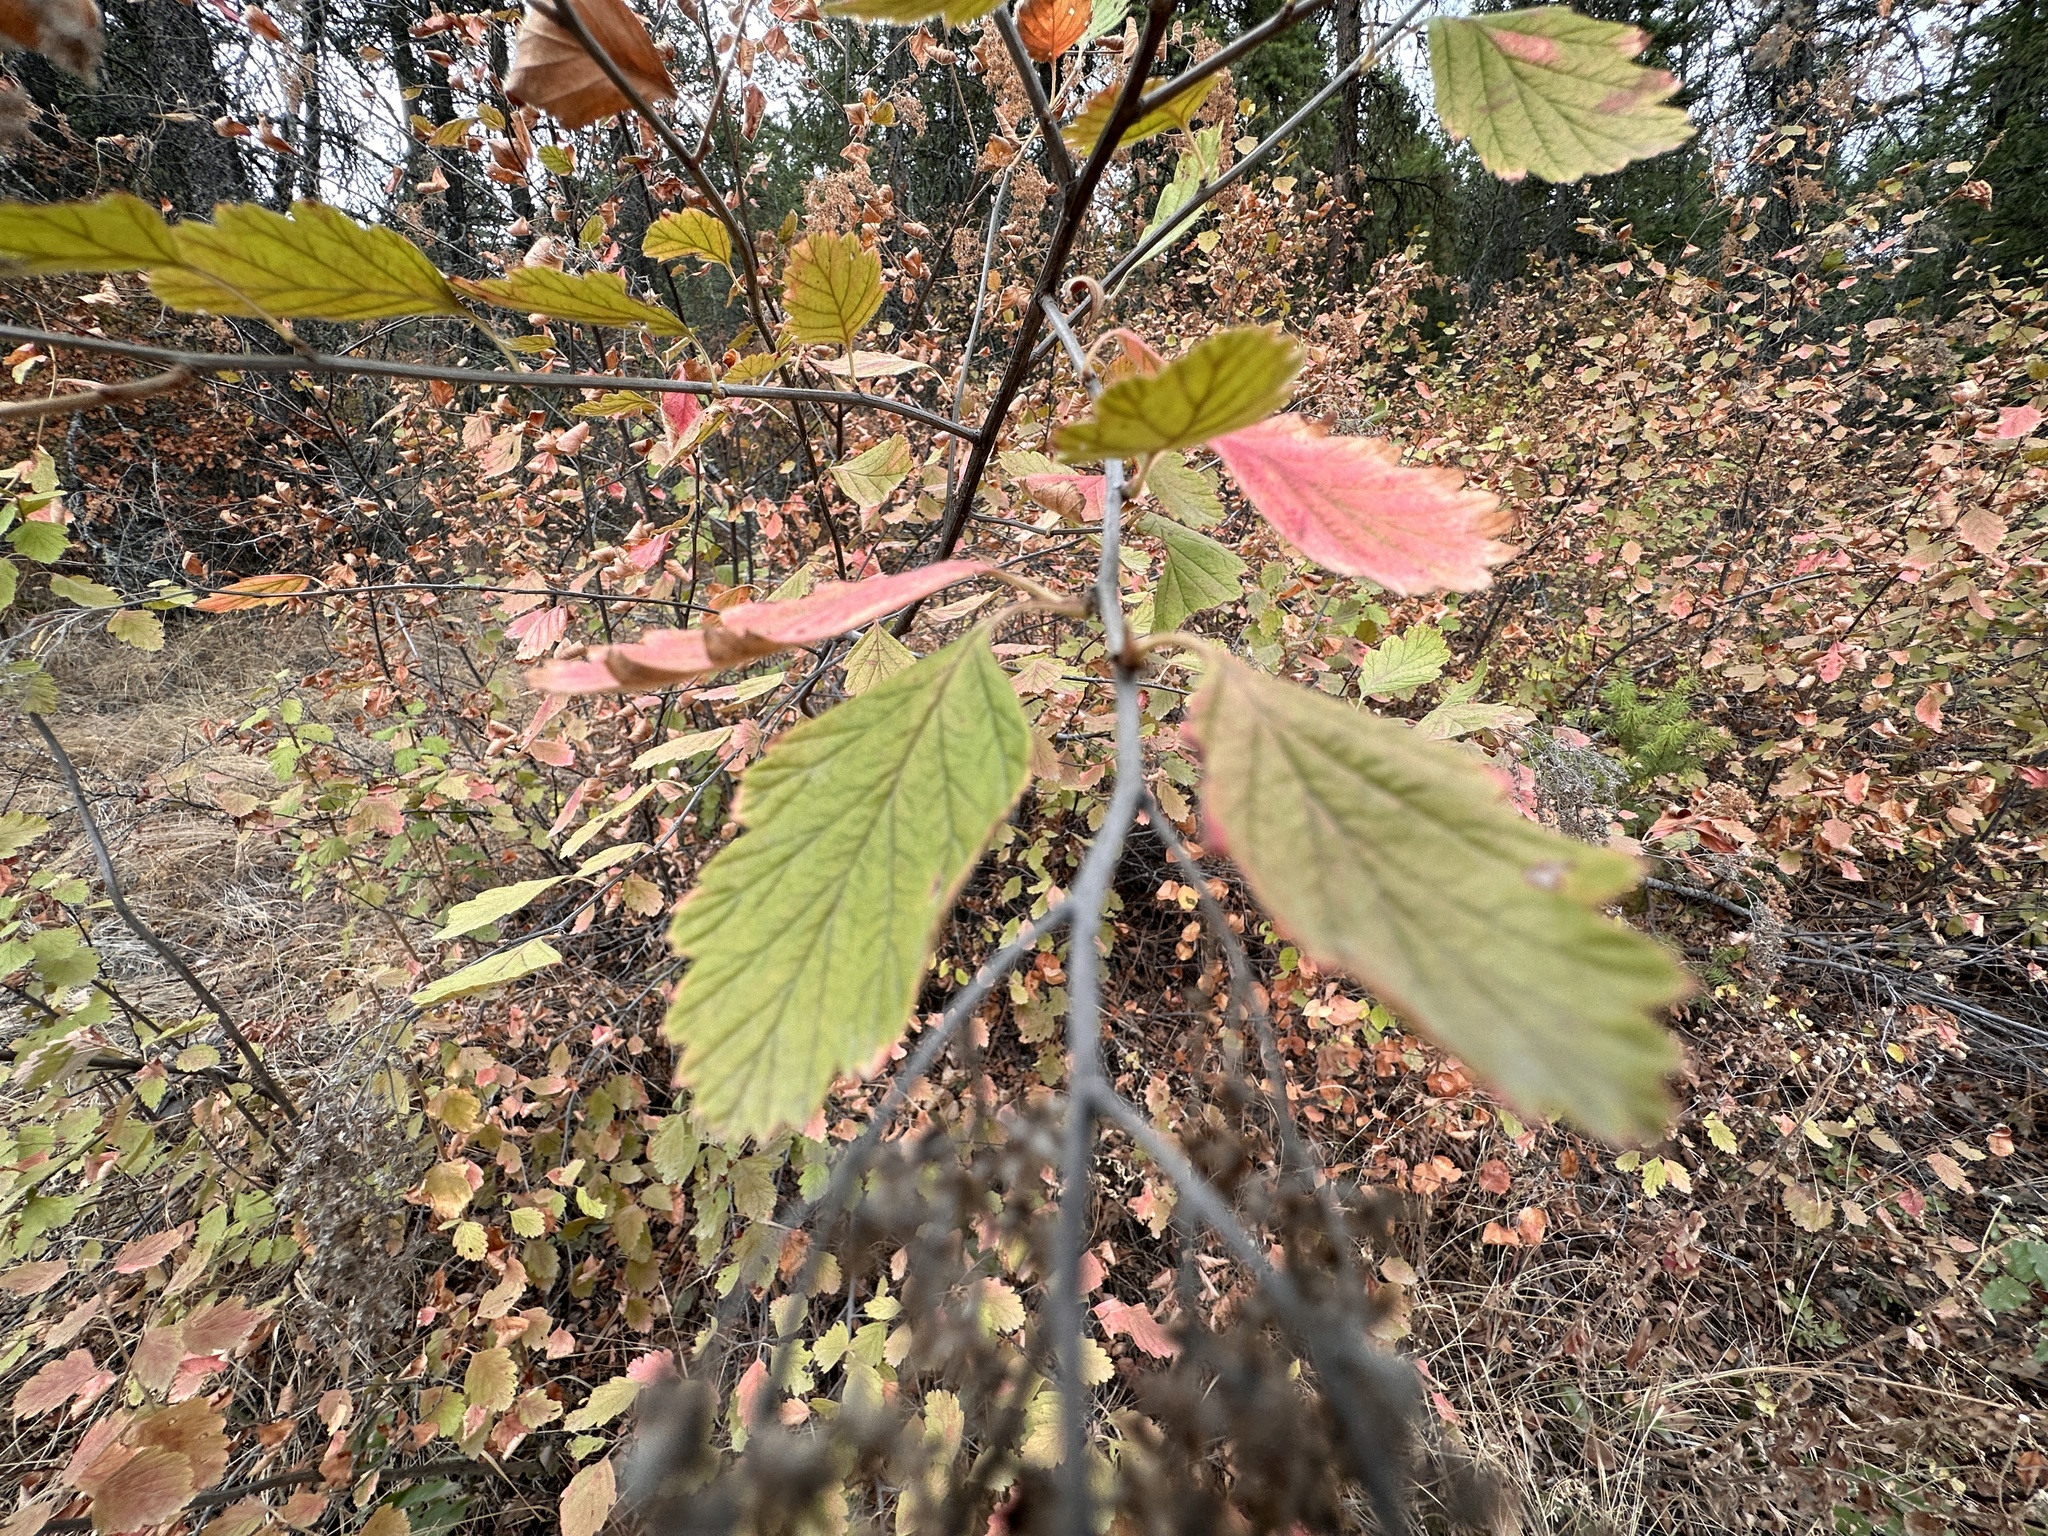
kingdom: Plantae
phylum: Tracheophyta
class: Magnoliopsida
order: Rosales
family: Rosaceae
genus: Holodiscus
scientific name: Holodiscus discolor
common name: Oceanspray
